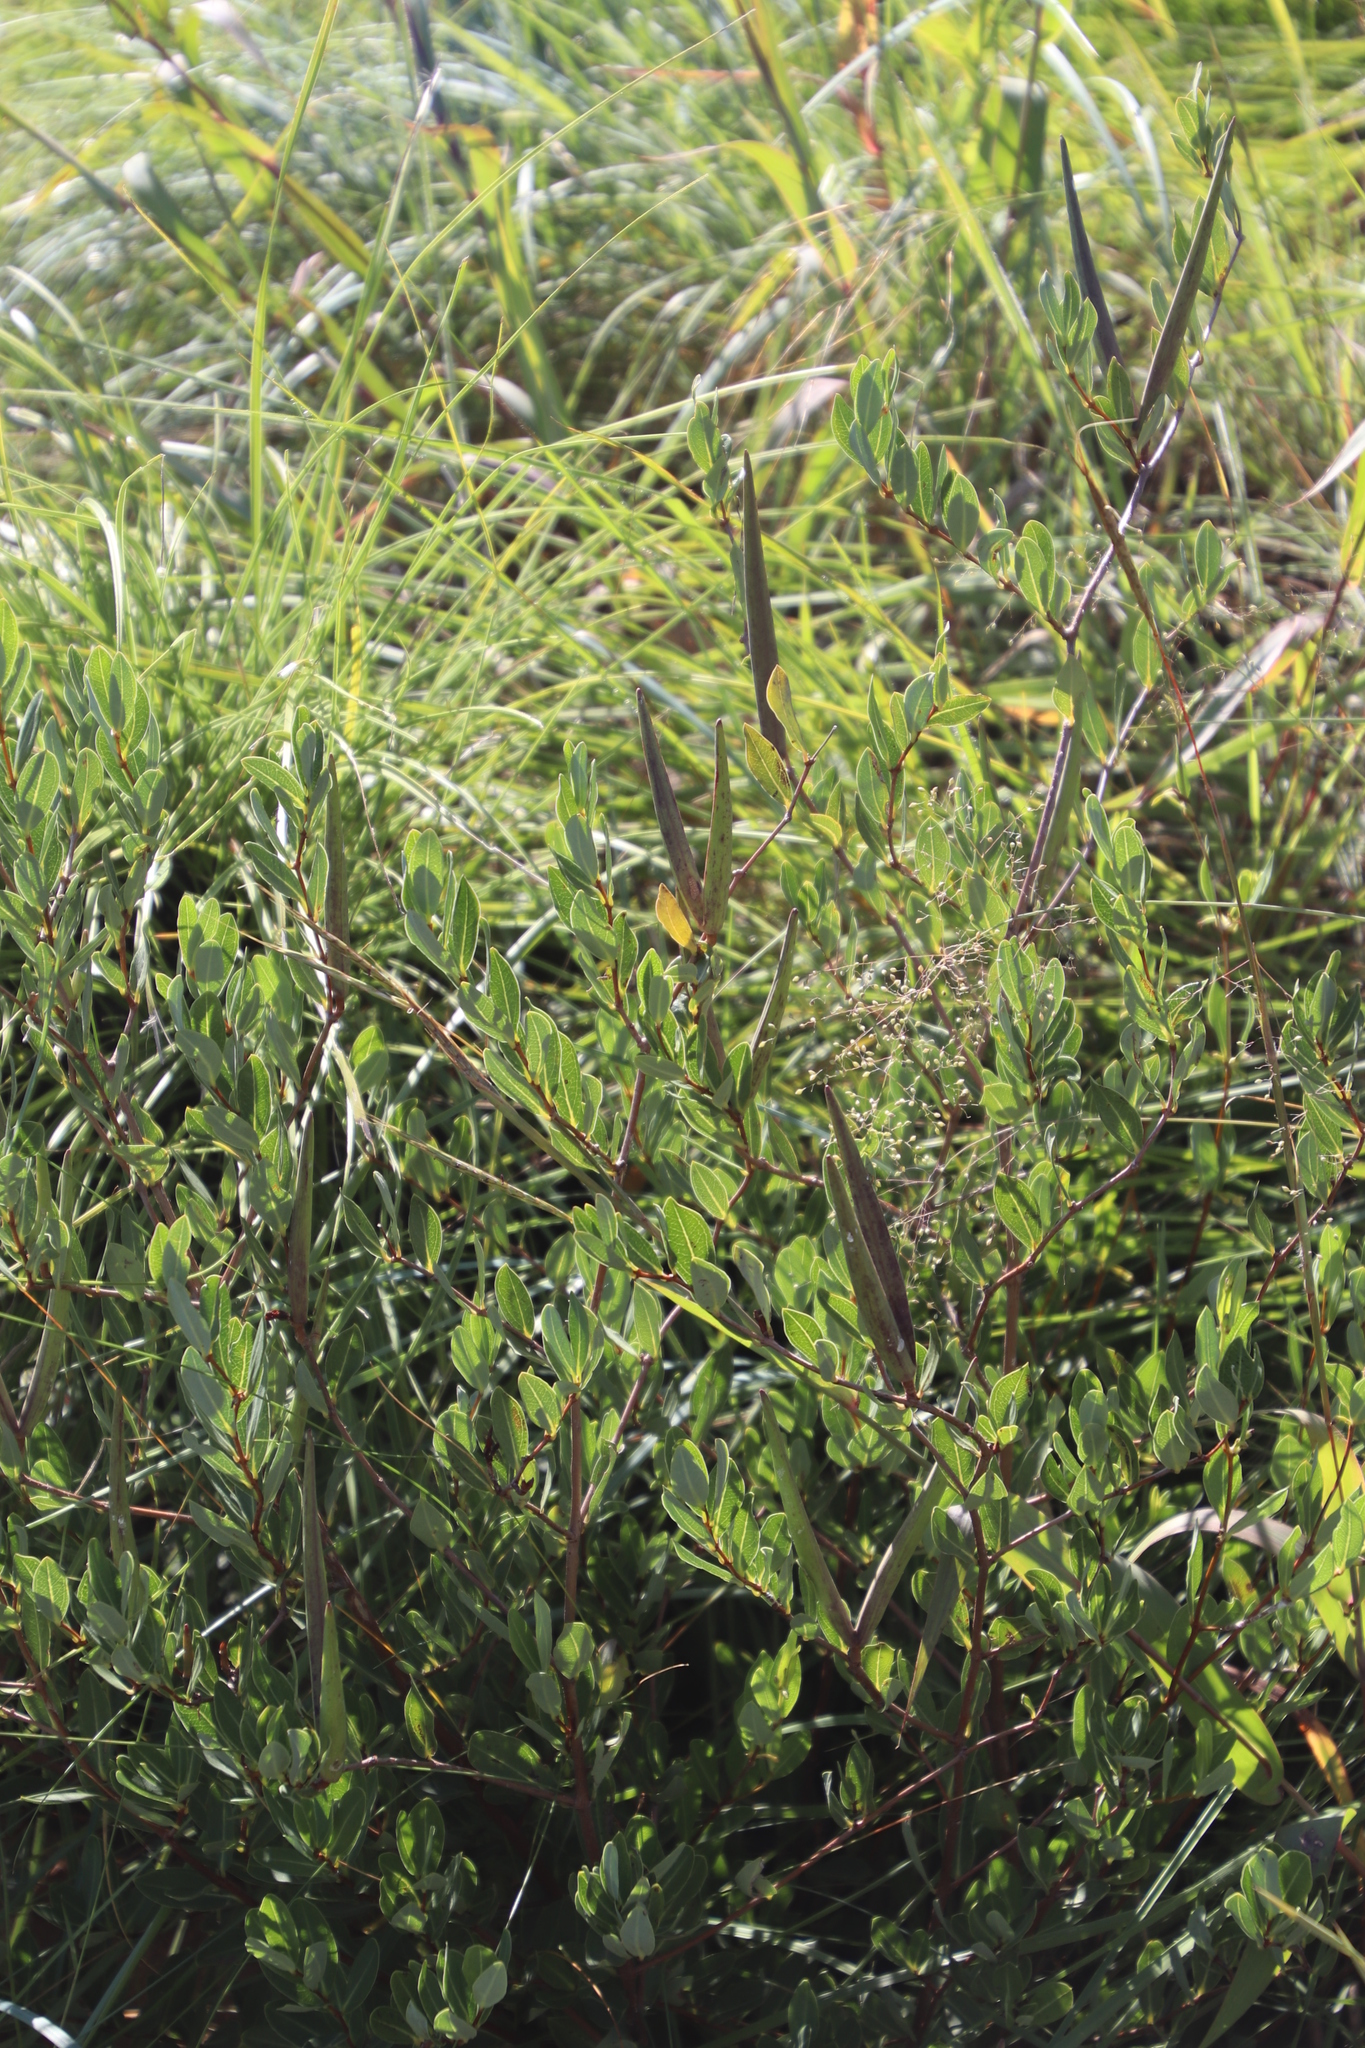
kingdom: Plantae
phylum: Tracheophyta
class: Magnoliopsida
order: Gentianales
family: Apocynaceae
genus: Cryptolepis
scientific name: Cryptolepis oblongifolia
